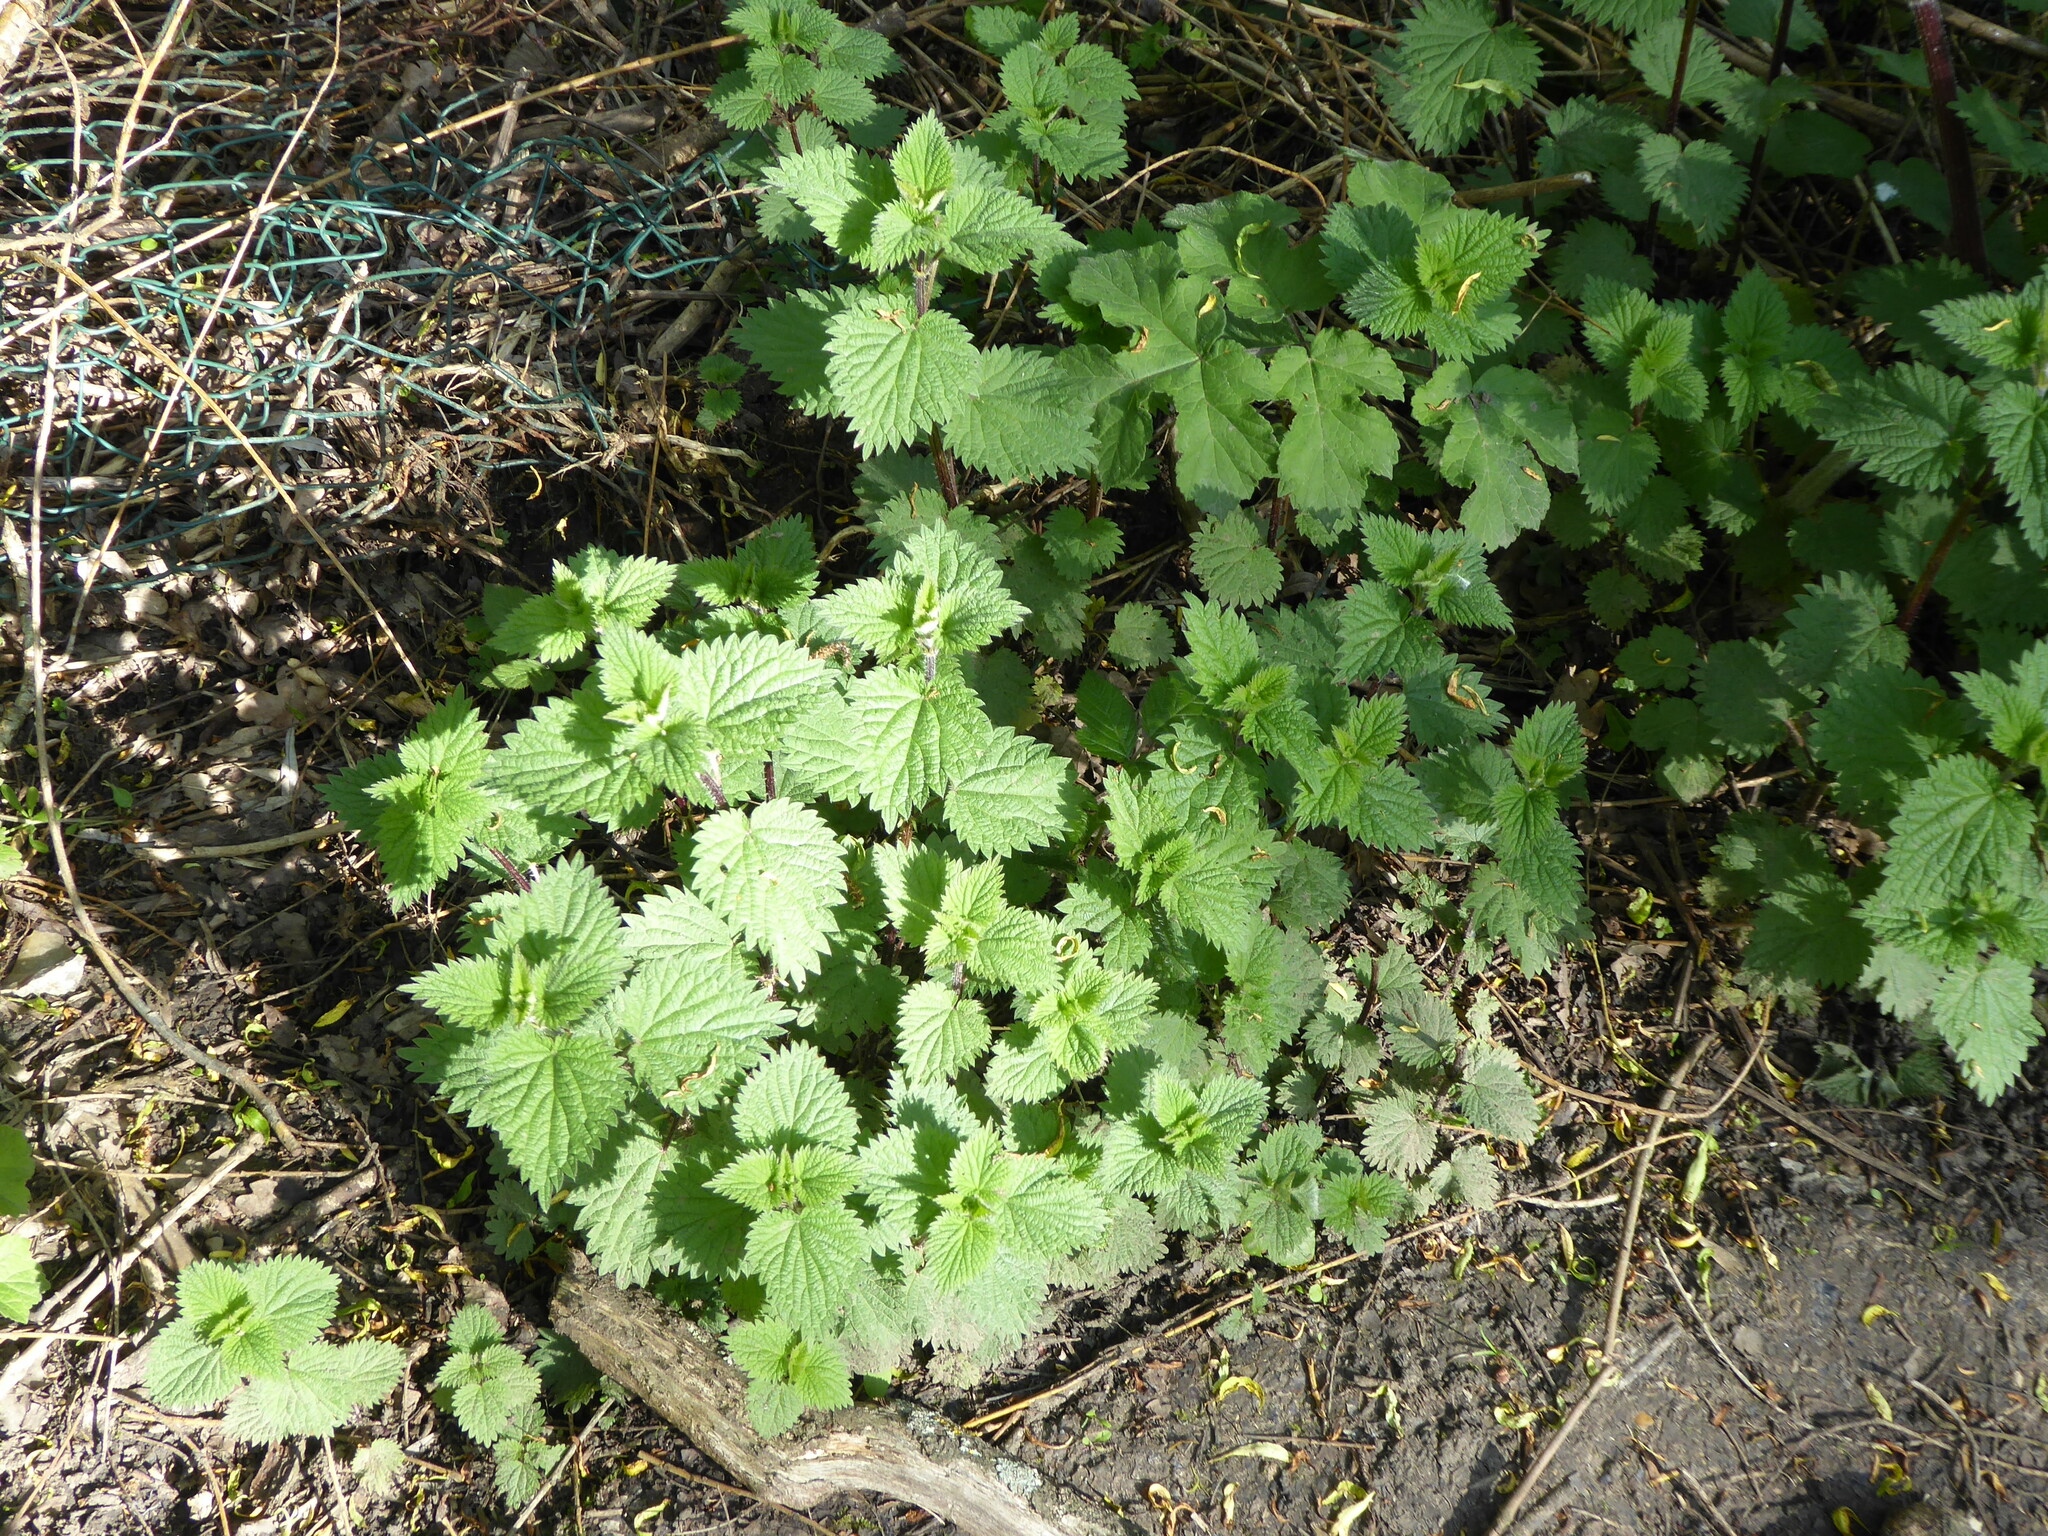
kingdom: Plantae
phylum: Tracheophyta
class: Magnoliopsida
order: Rosales
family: Urticaceae
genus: Urtica
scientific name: Urtica dioica
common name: Common nettle
